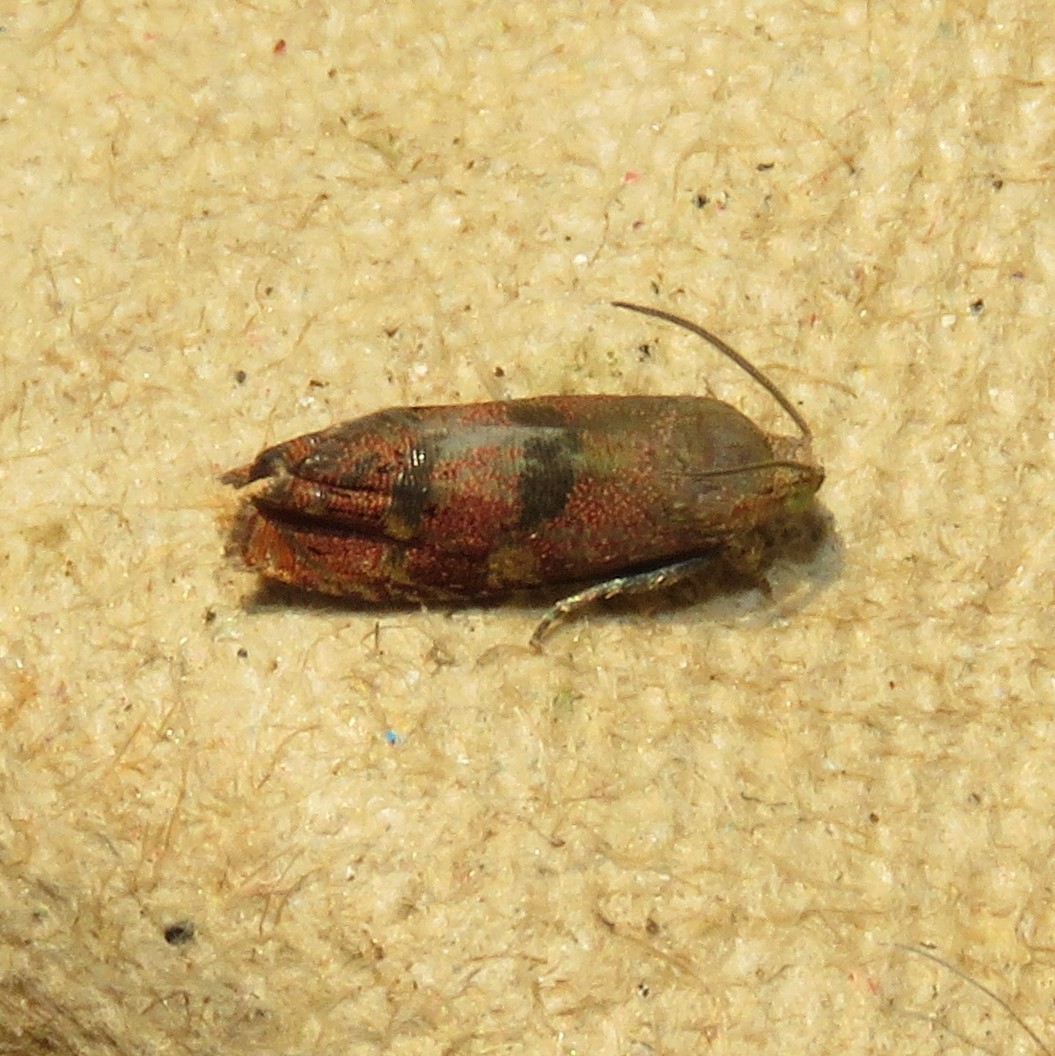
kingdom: Animalia
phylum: Arthropoda
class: Insecta
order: Lepidoptera
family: Tortricidae
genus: Cydia
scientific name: Cydia latiferreana
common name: Filbertworm moth
